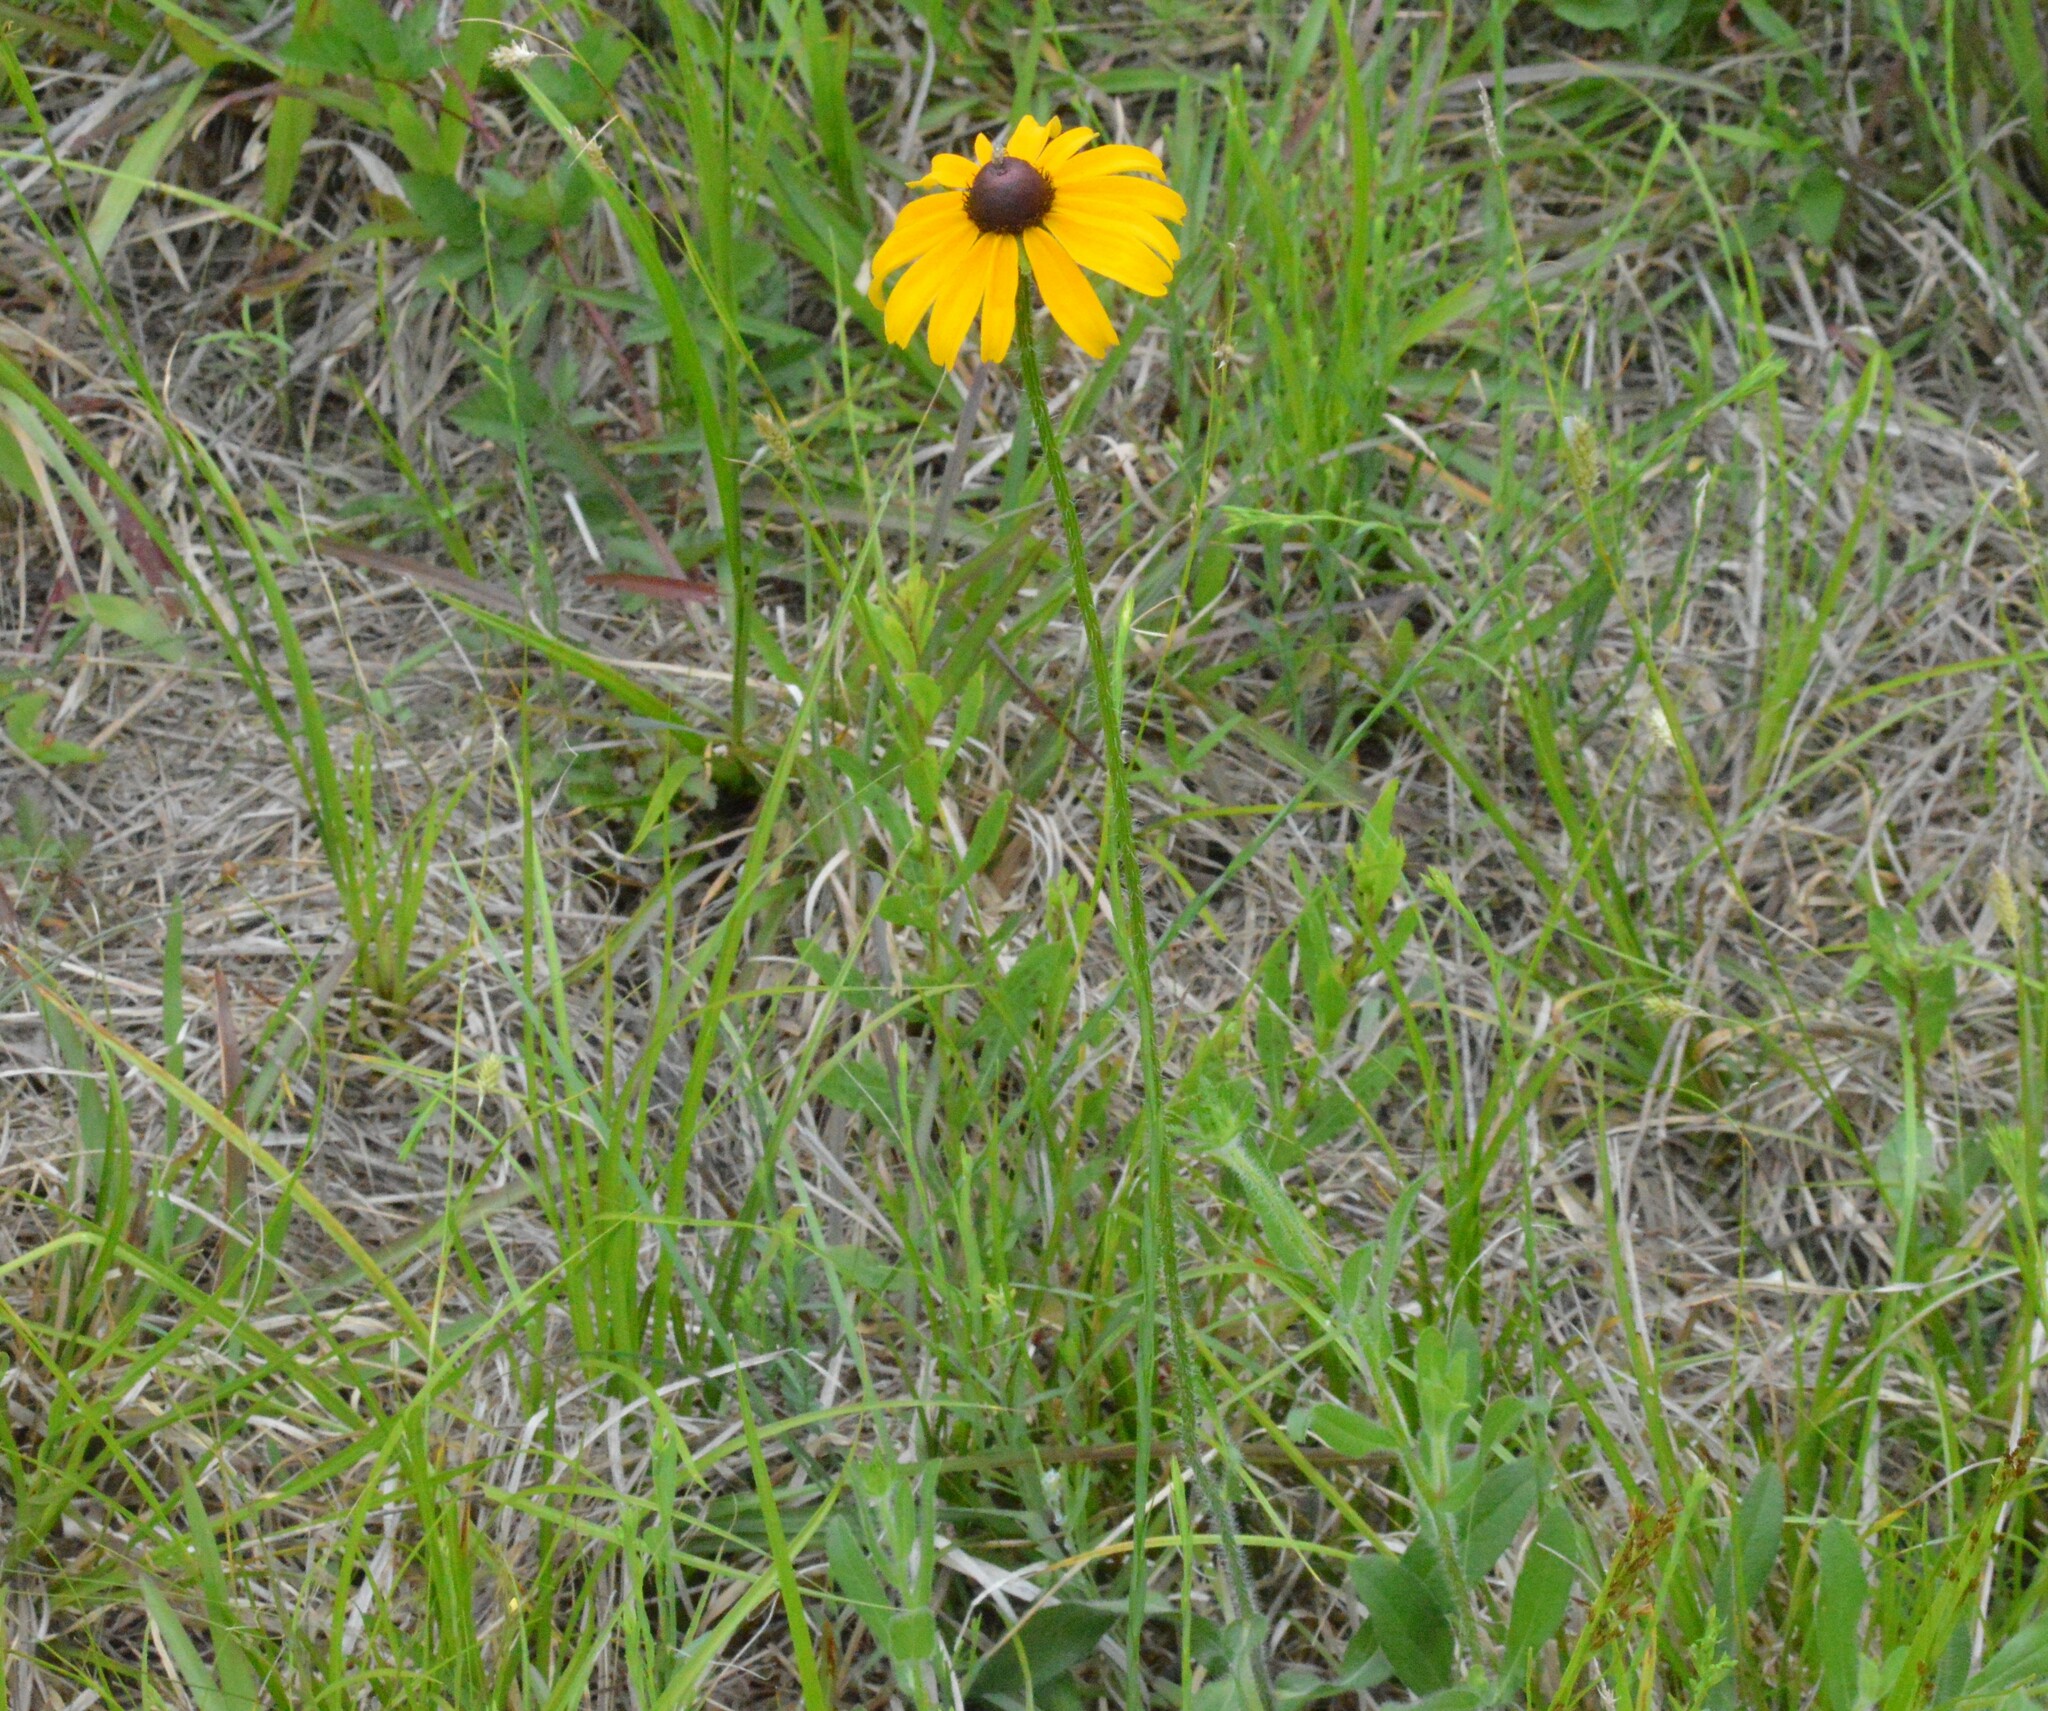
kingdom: Plantae
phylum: Tracheophyta
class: Magnoliopsida
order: Asterales
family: Asteraceae
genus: Rudbeckia
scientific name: Rudbeckia hirta
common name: Black-eyed-susan
